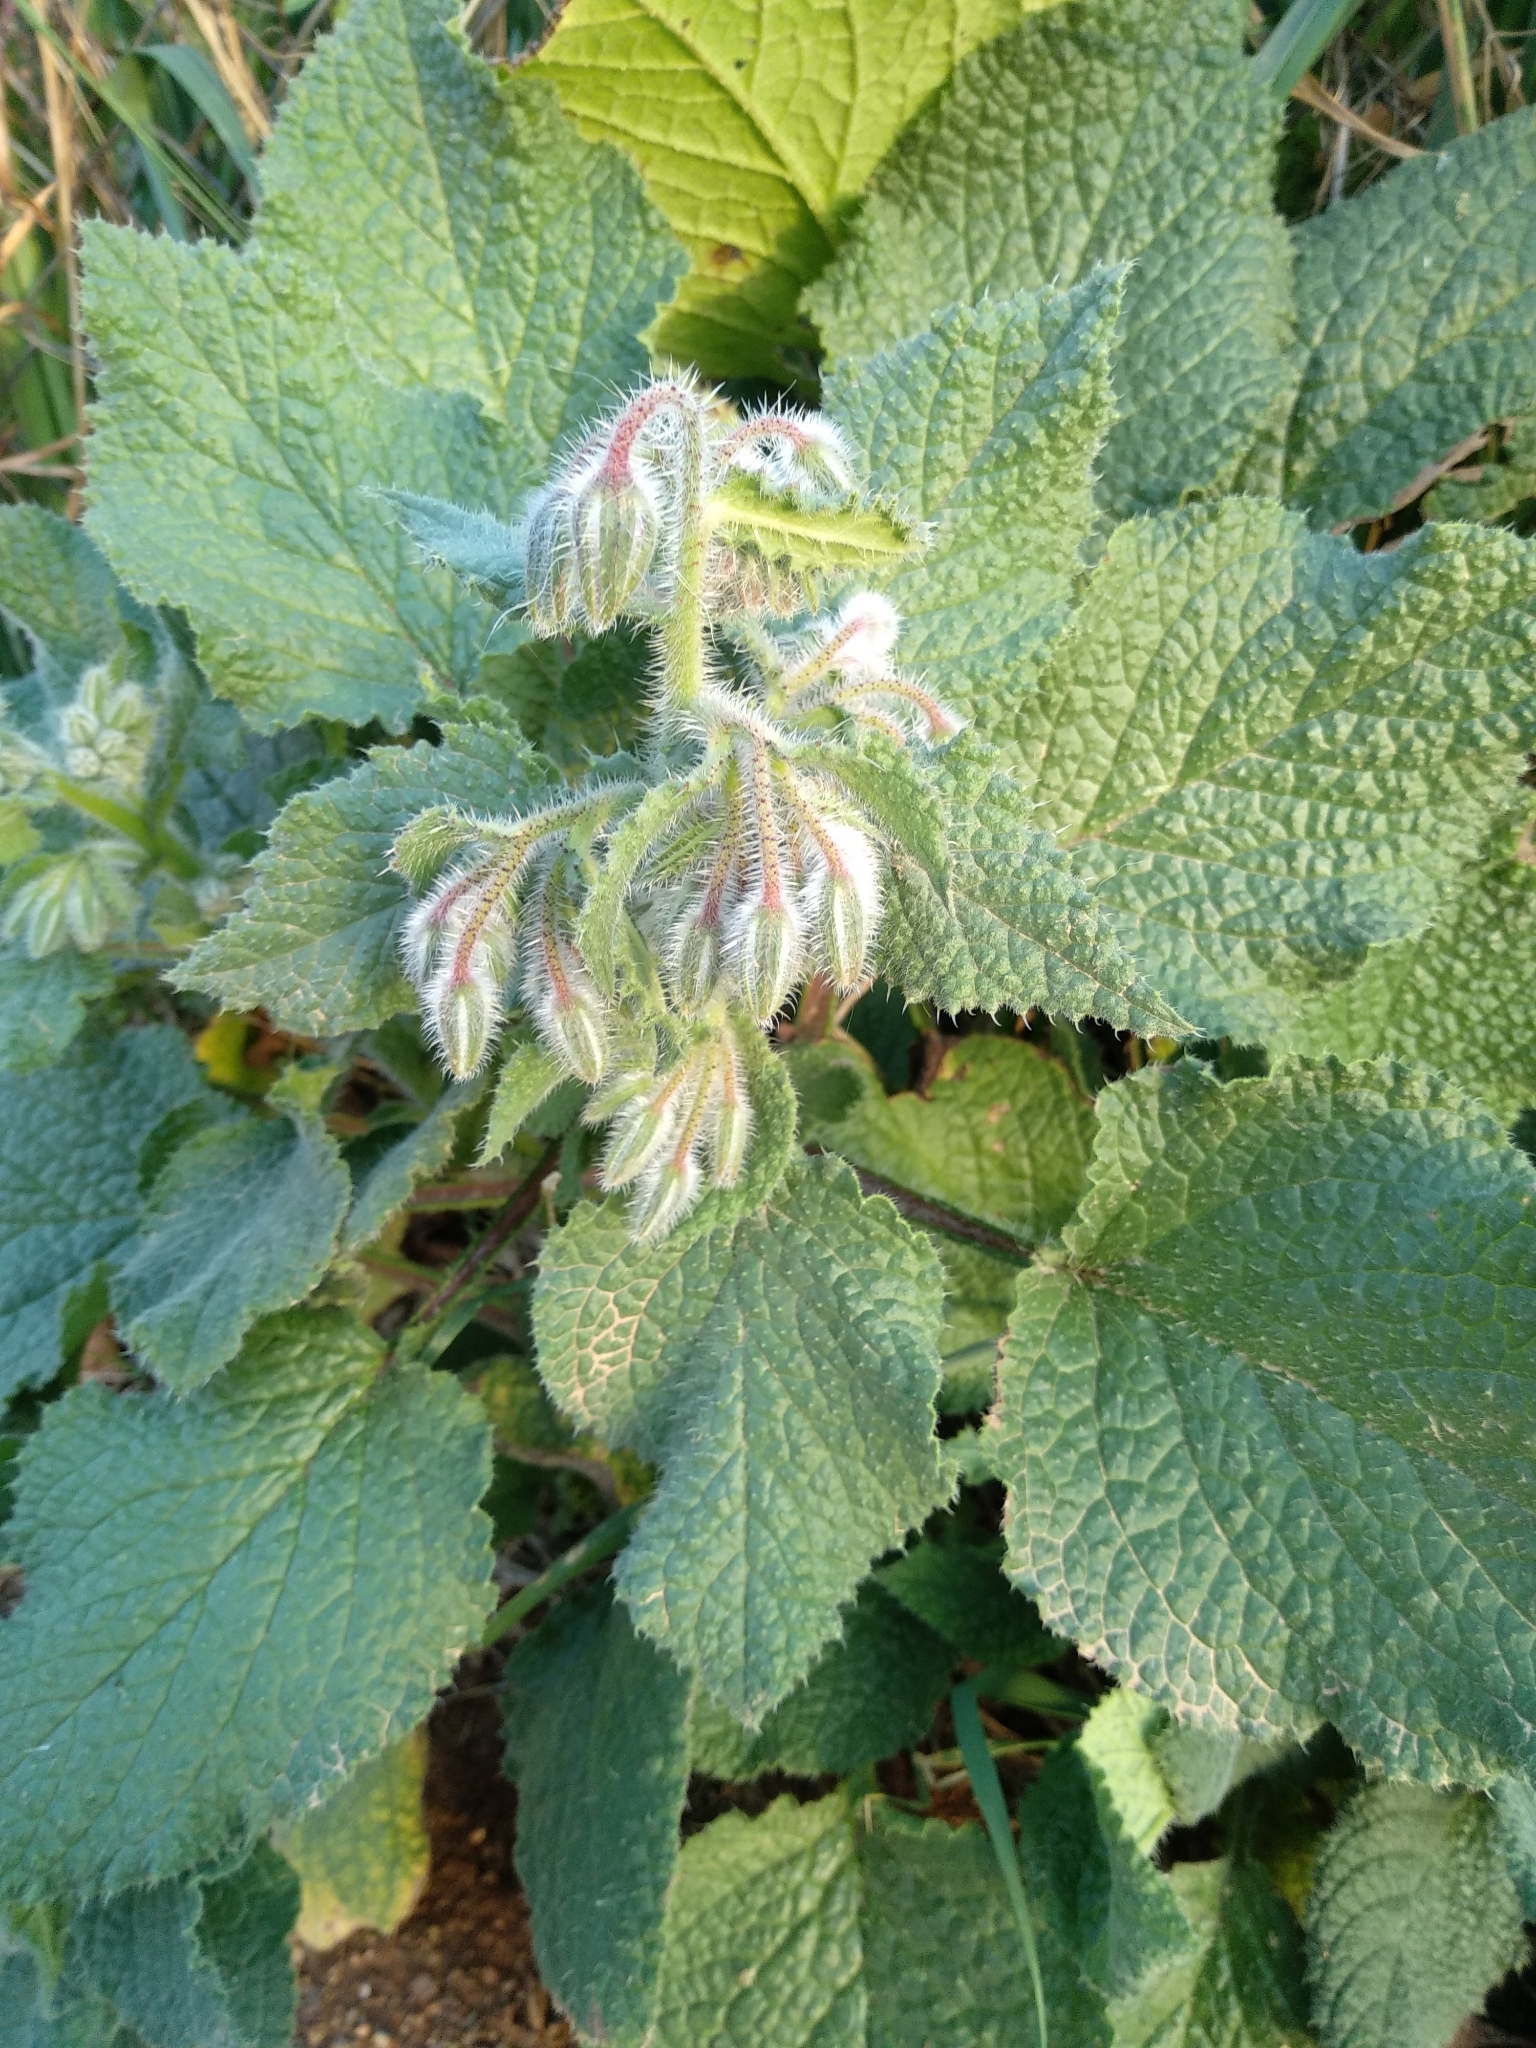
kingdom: Plantae
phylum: Tracheophyta
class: Magnoliopsida
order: Boraginales
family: Boraginaceae
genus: Borago
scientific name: Borago officinalis
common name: Borage
